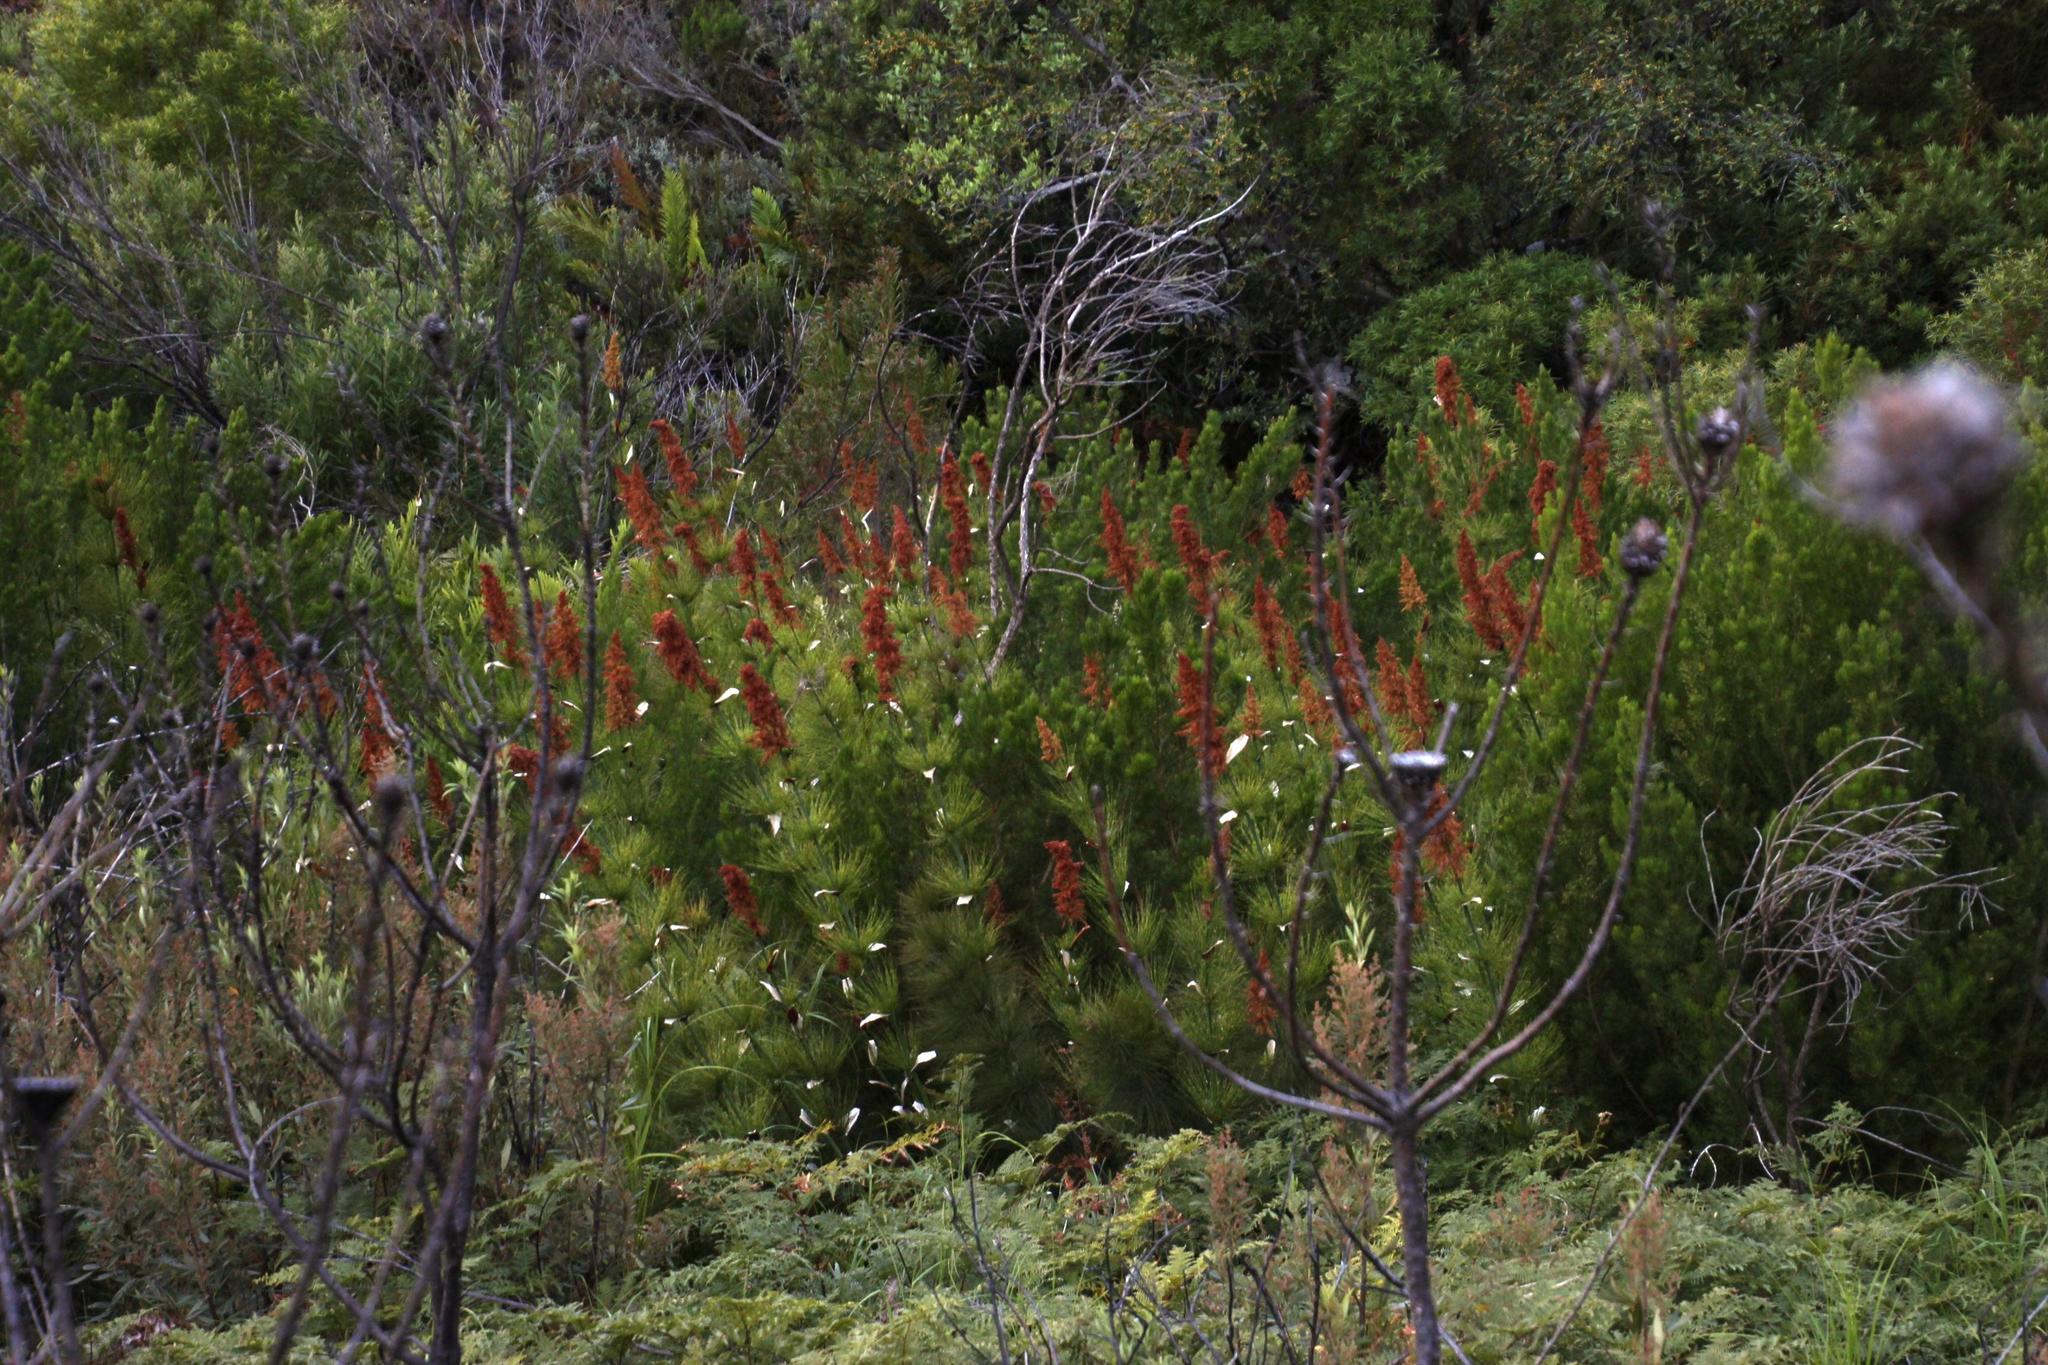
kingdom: Plantae
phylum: Tracheophyta
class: Liliopsida
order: Poales
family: Restionaceae
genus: Elegia
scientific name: Elegia capensis
